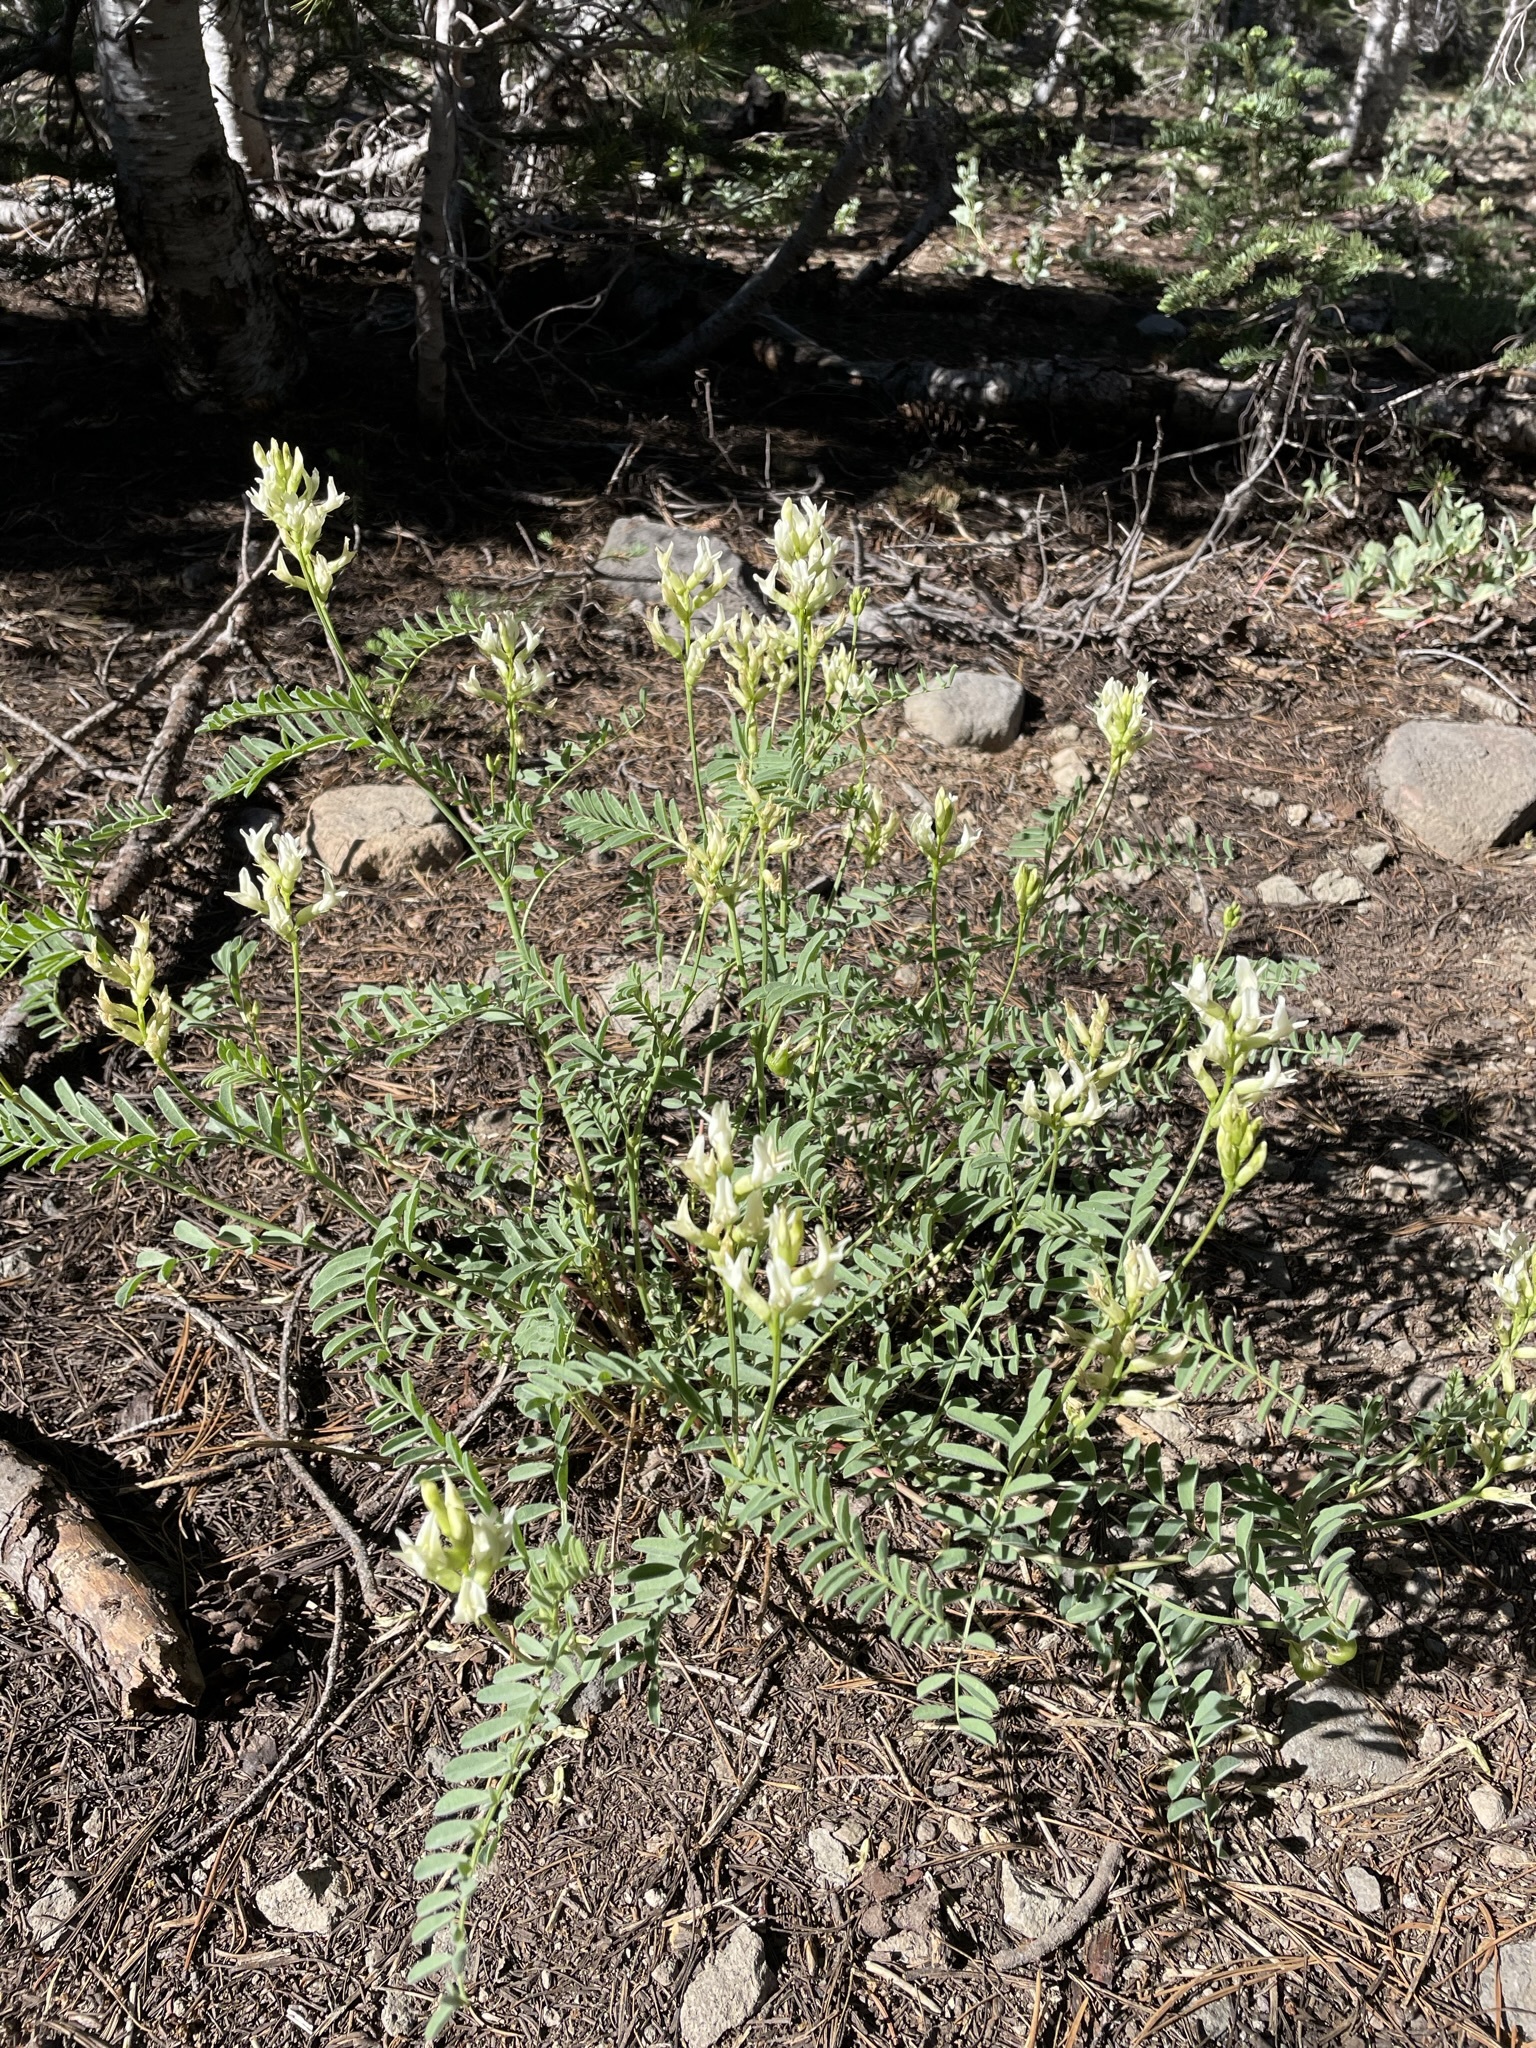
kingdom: Plantae
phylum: Tracheophyta
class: Magnoliopsida
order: Fabales
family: Fabaceae
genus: Astragalus
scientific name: Astragalus bolanderi
